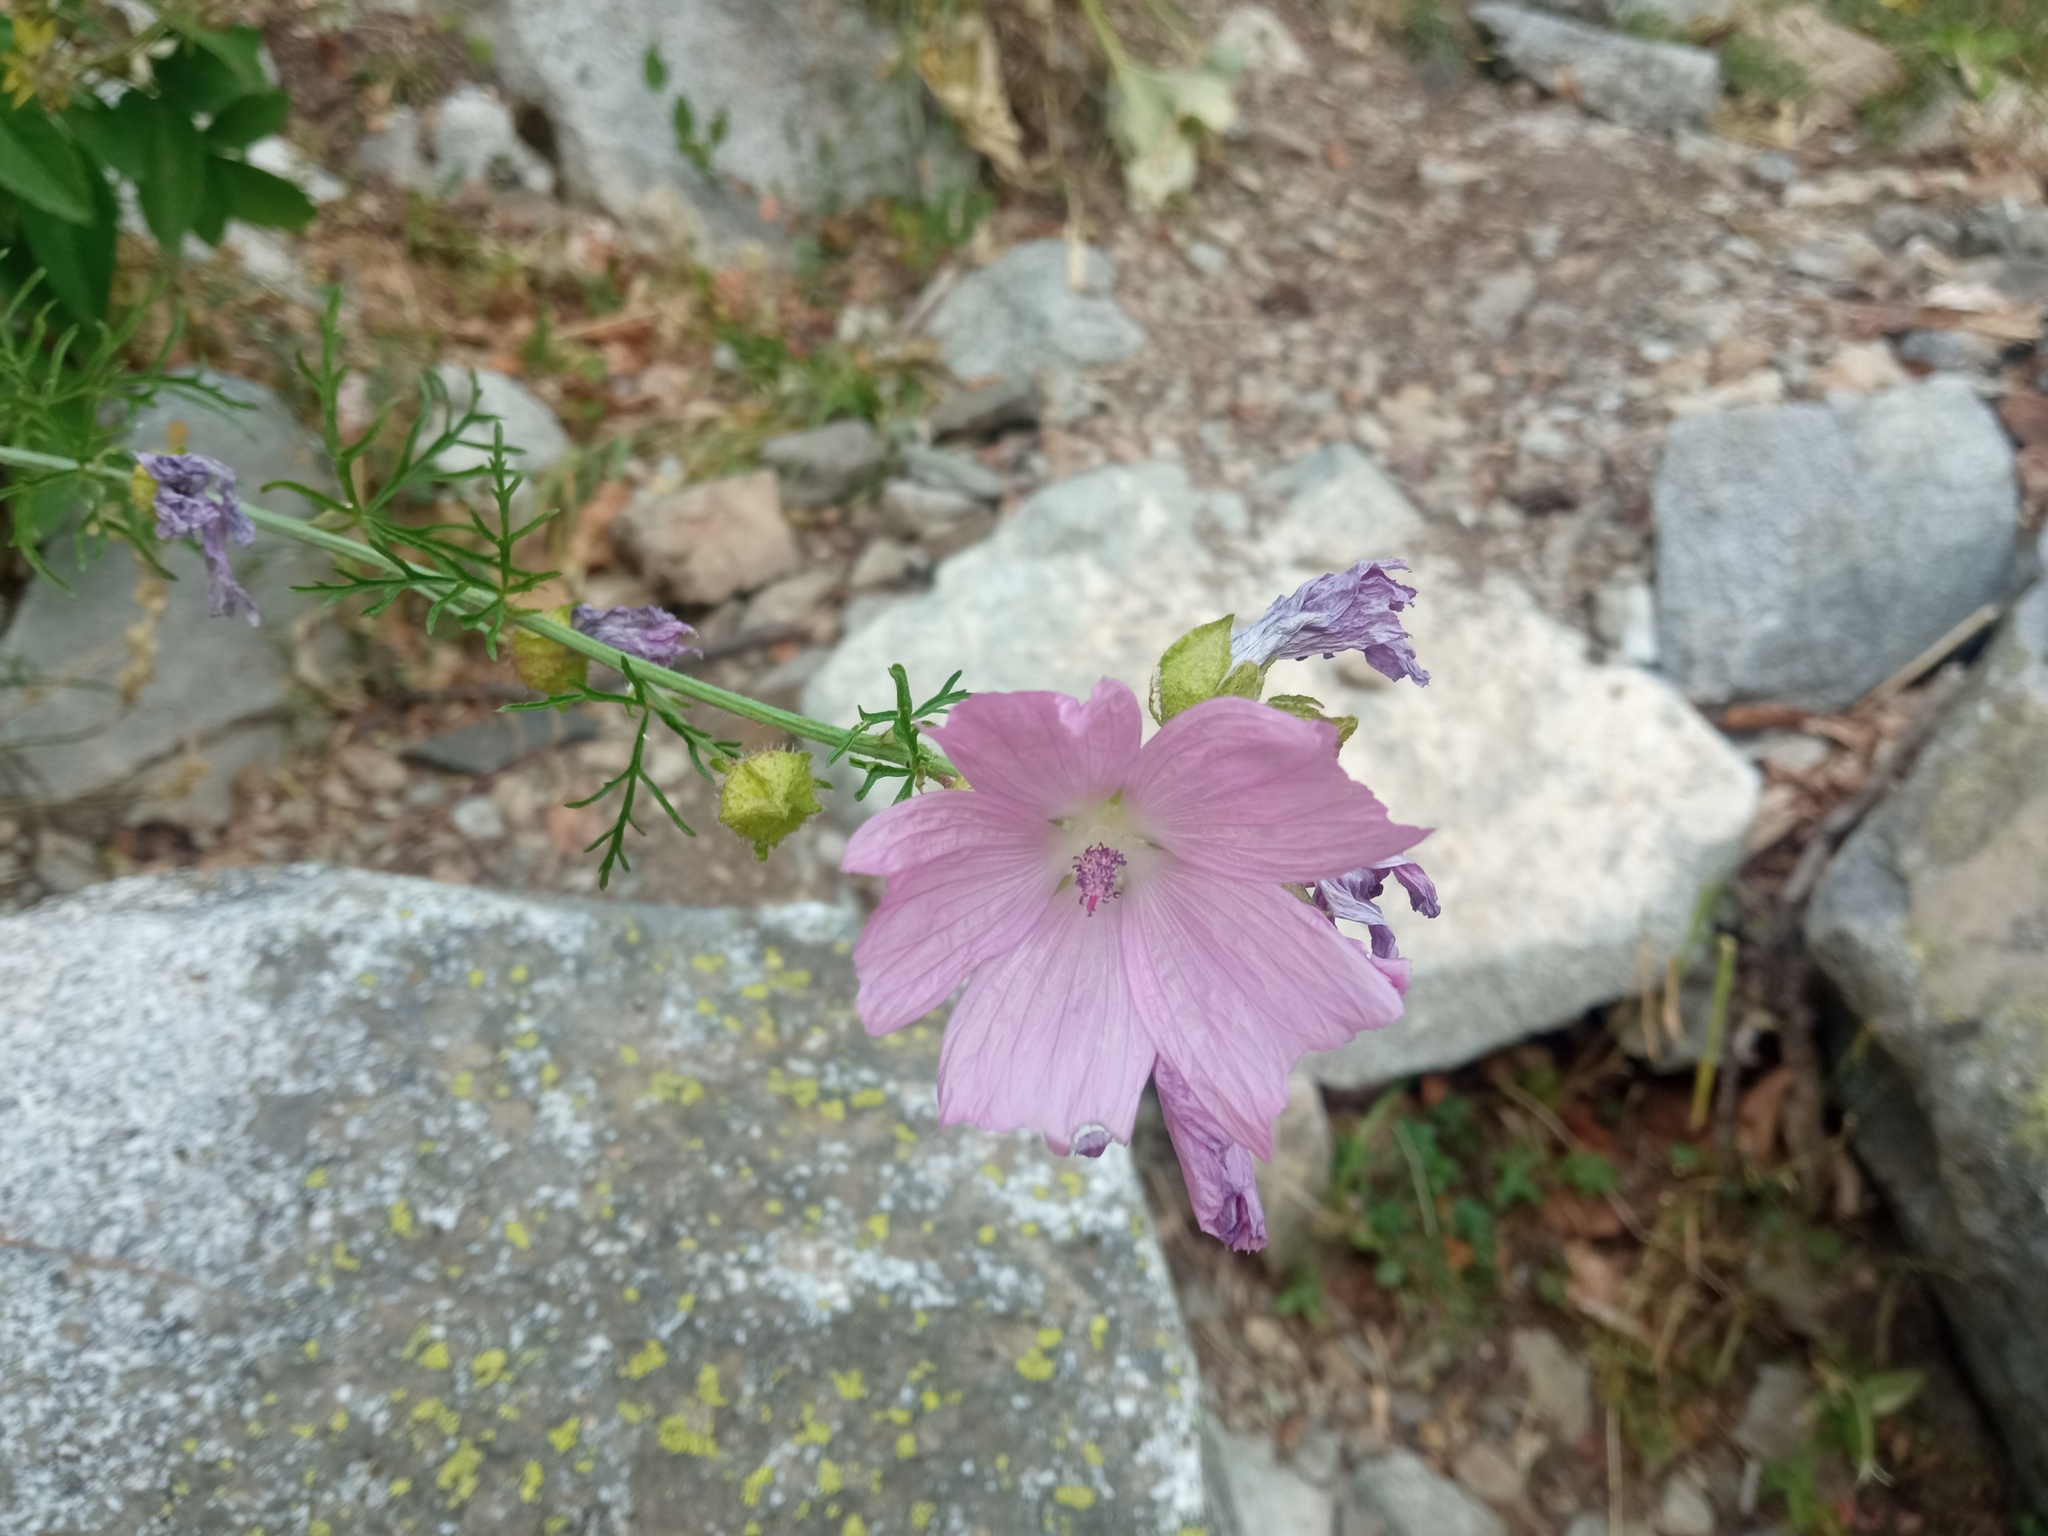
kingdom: Plantae
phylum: Tracheophyta
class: Magnoliopsida
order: Malvales
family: Malvaceae
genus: Malva
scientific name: Malva moschata
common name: Musk mallow
